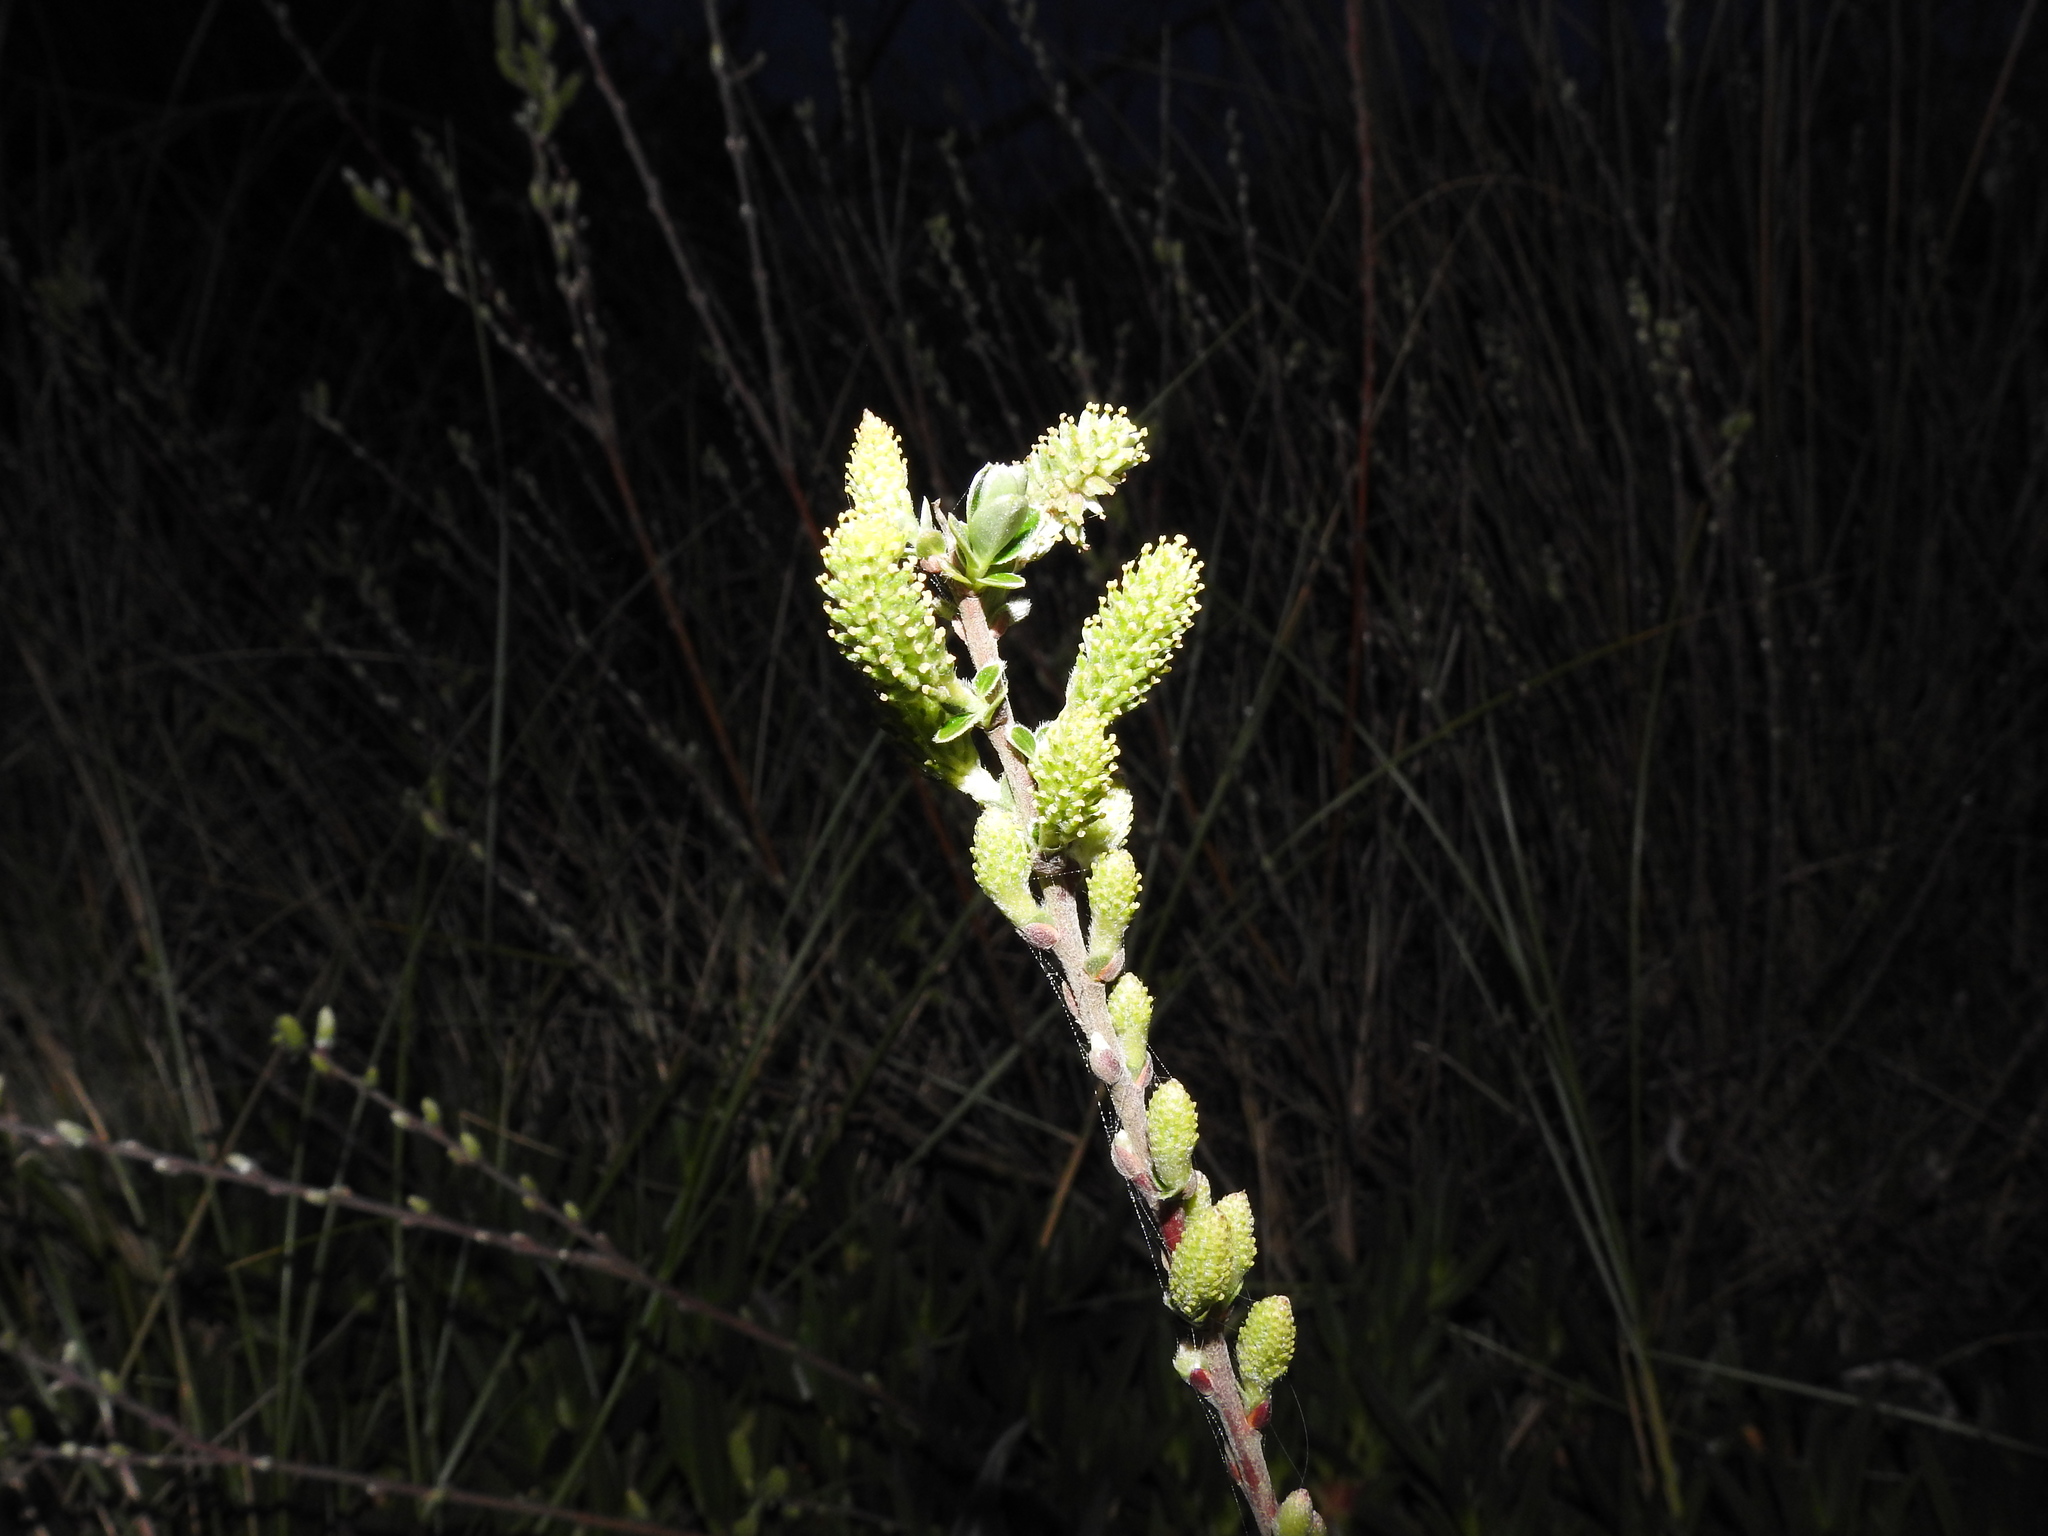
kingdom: Plantae
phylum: Tracheophyta
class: Magnoliopsida
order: Malpighiales
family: Salicaceae
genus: Salix
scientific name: Salix repens
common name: Creeping willow
